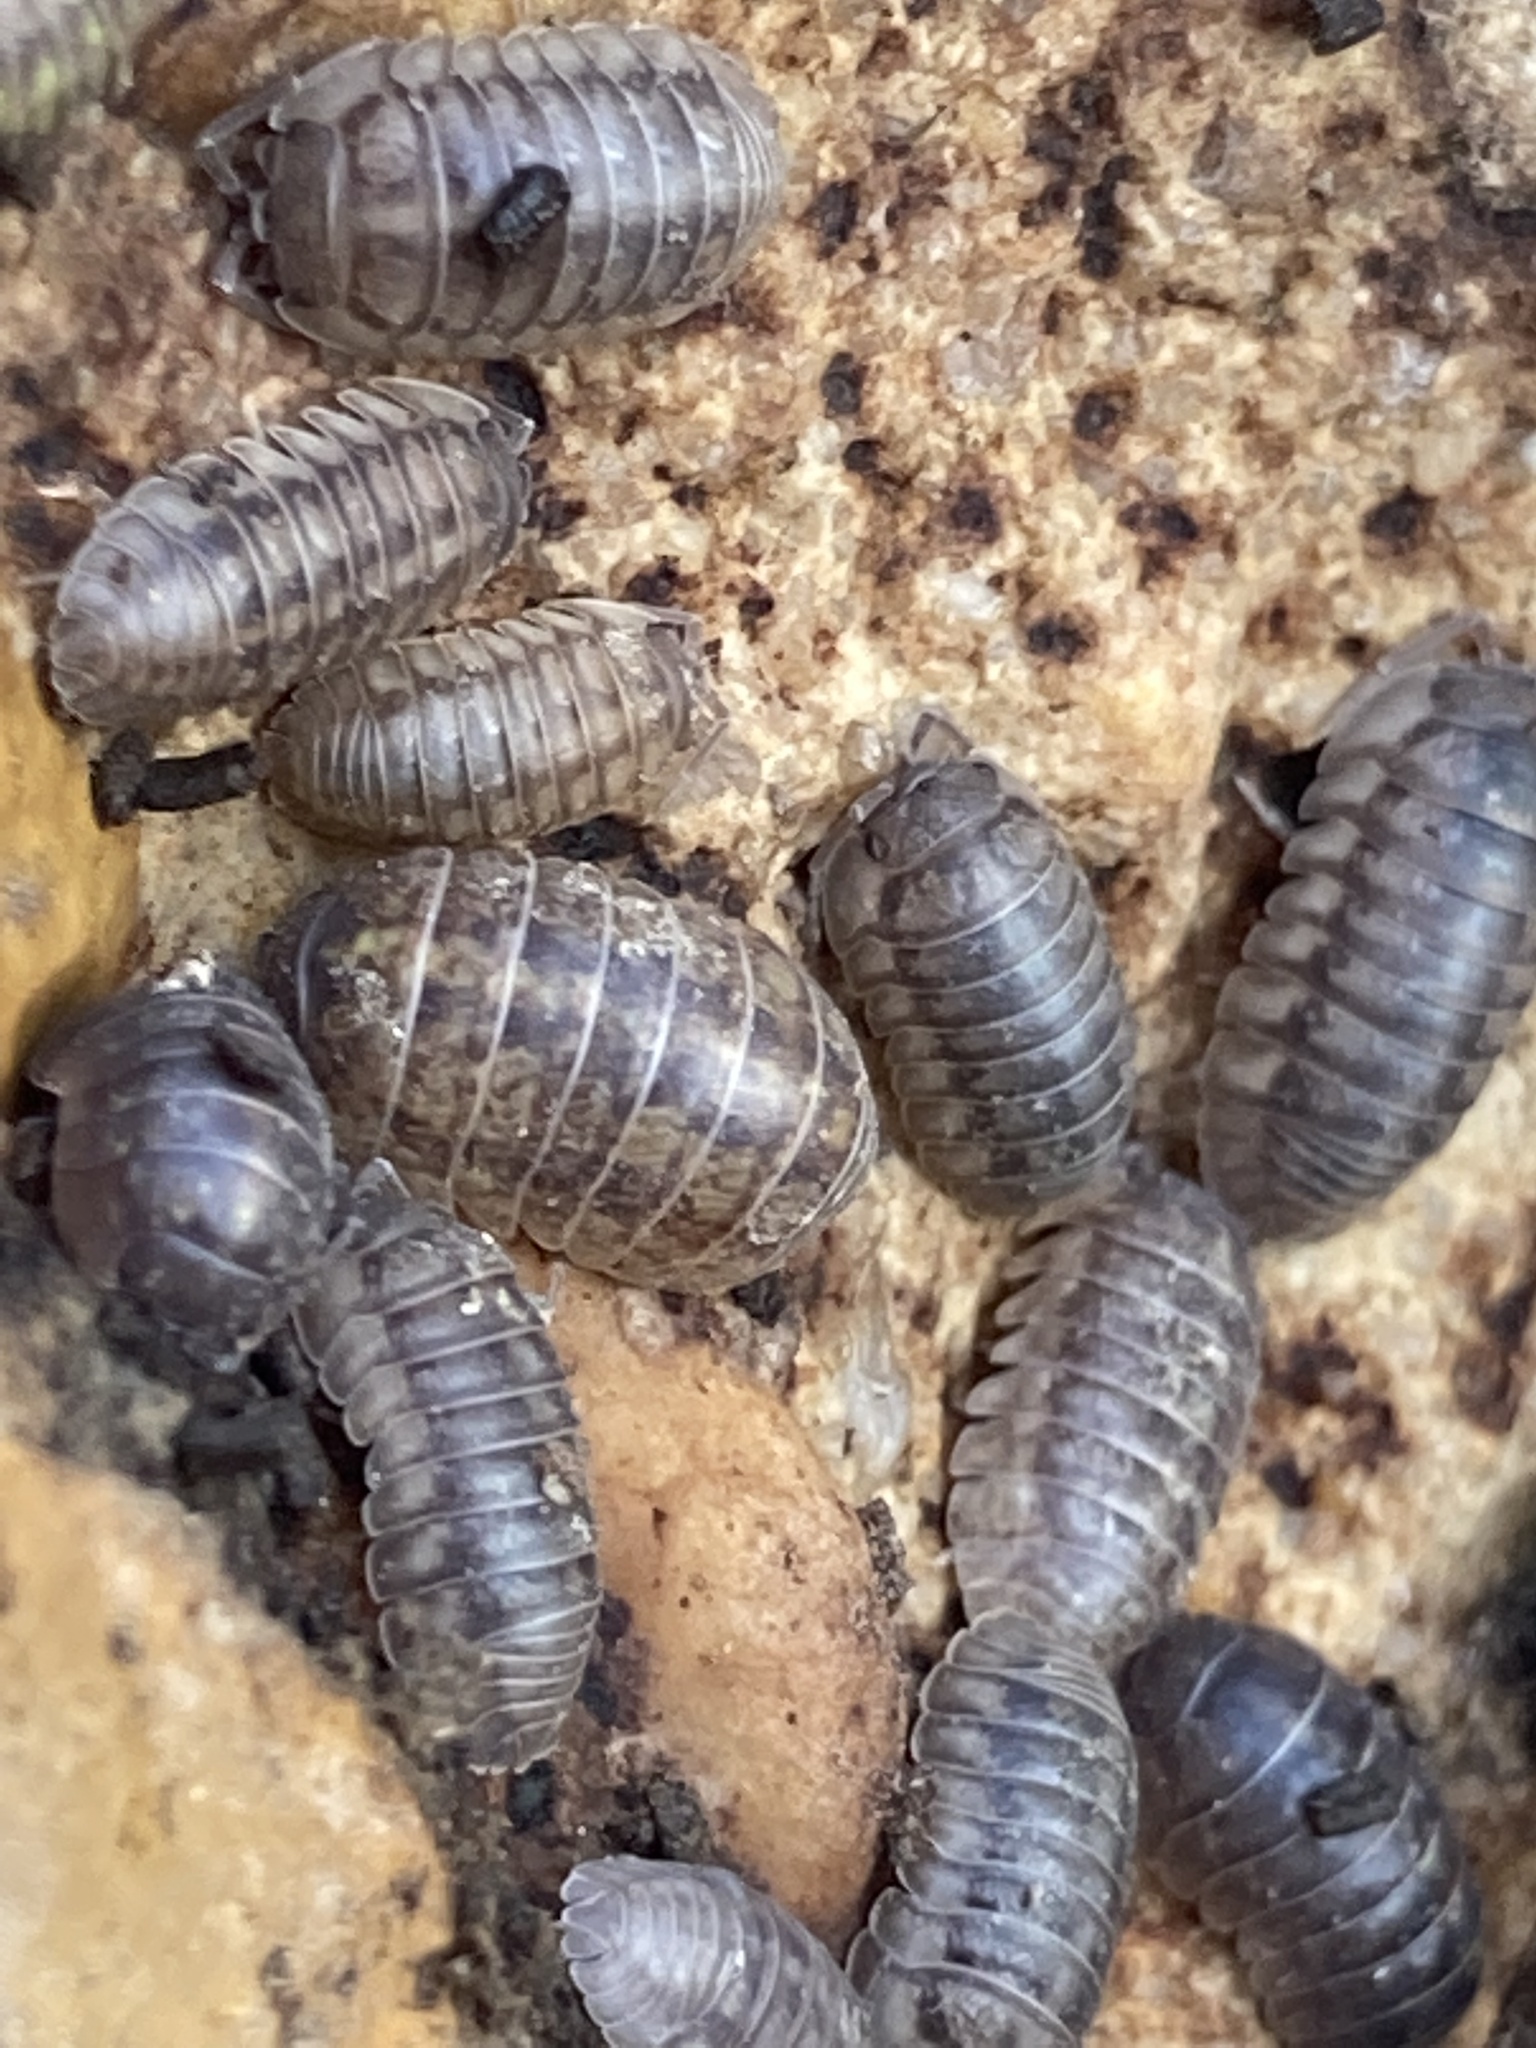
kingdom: Animalia
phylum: Arthropoda
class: Malacostraca
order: Isopoda
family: Armadillidiidae
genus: Armadillidium
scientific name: Armadillidium nasatum
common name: Isopod
